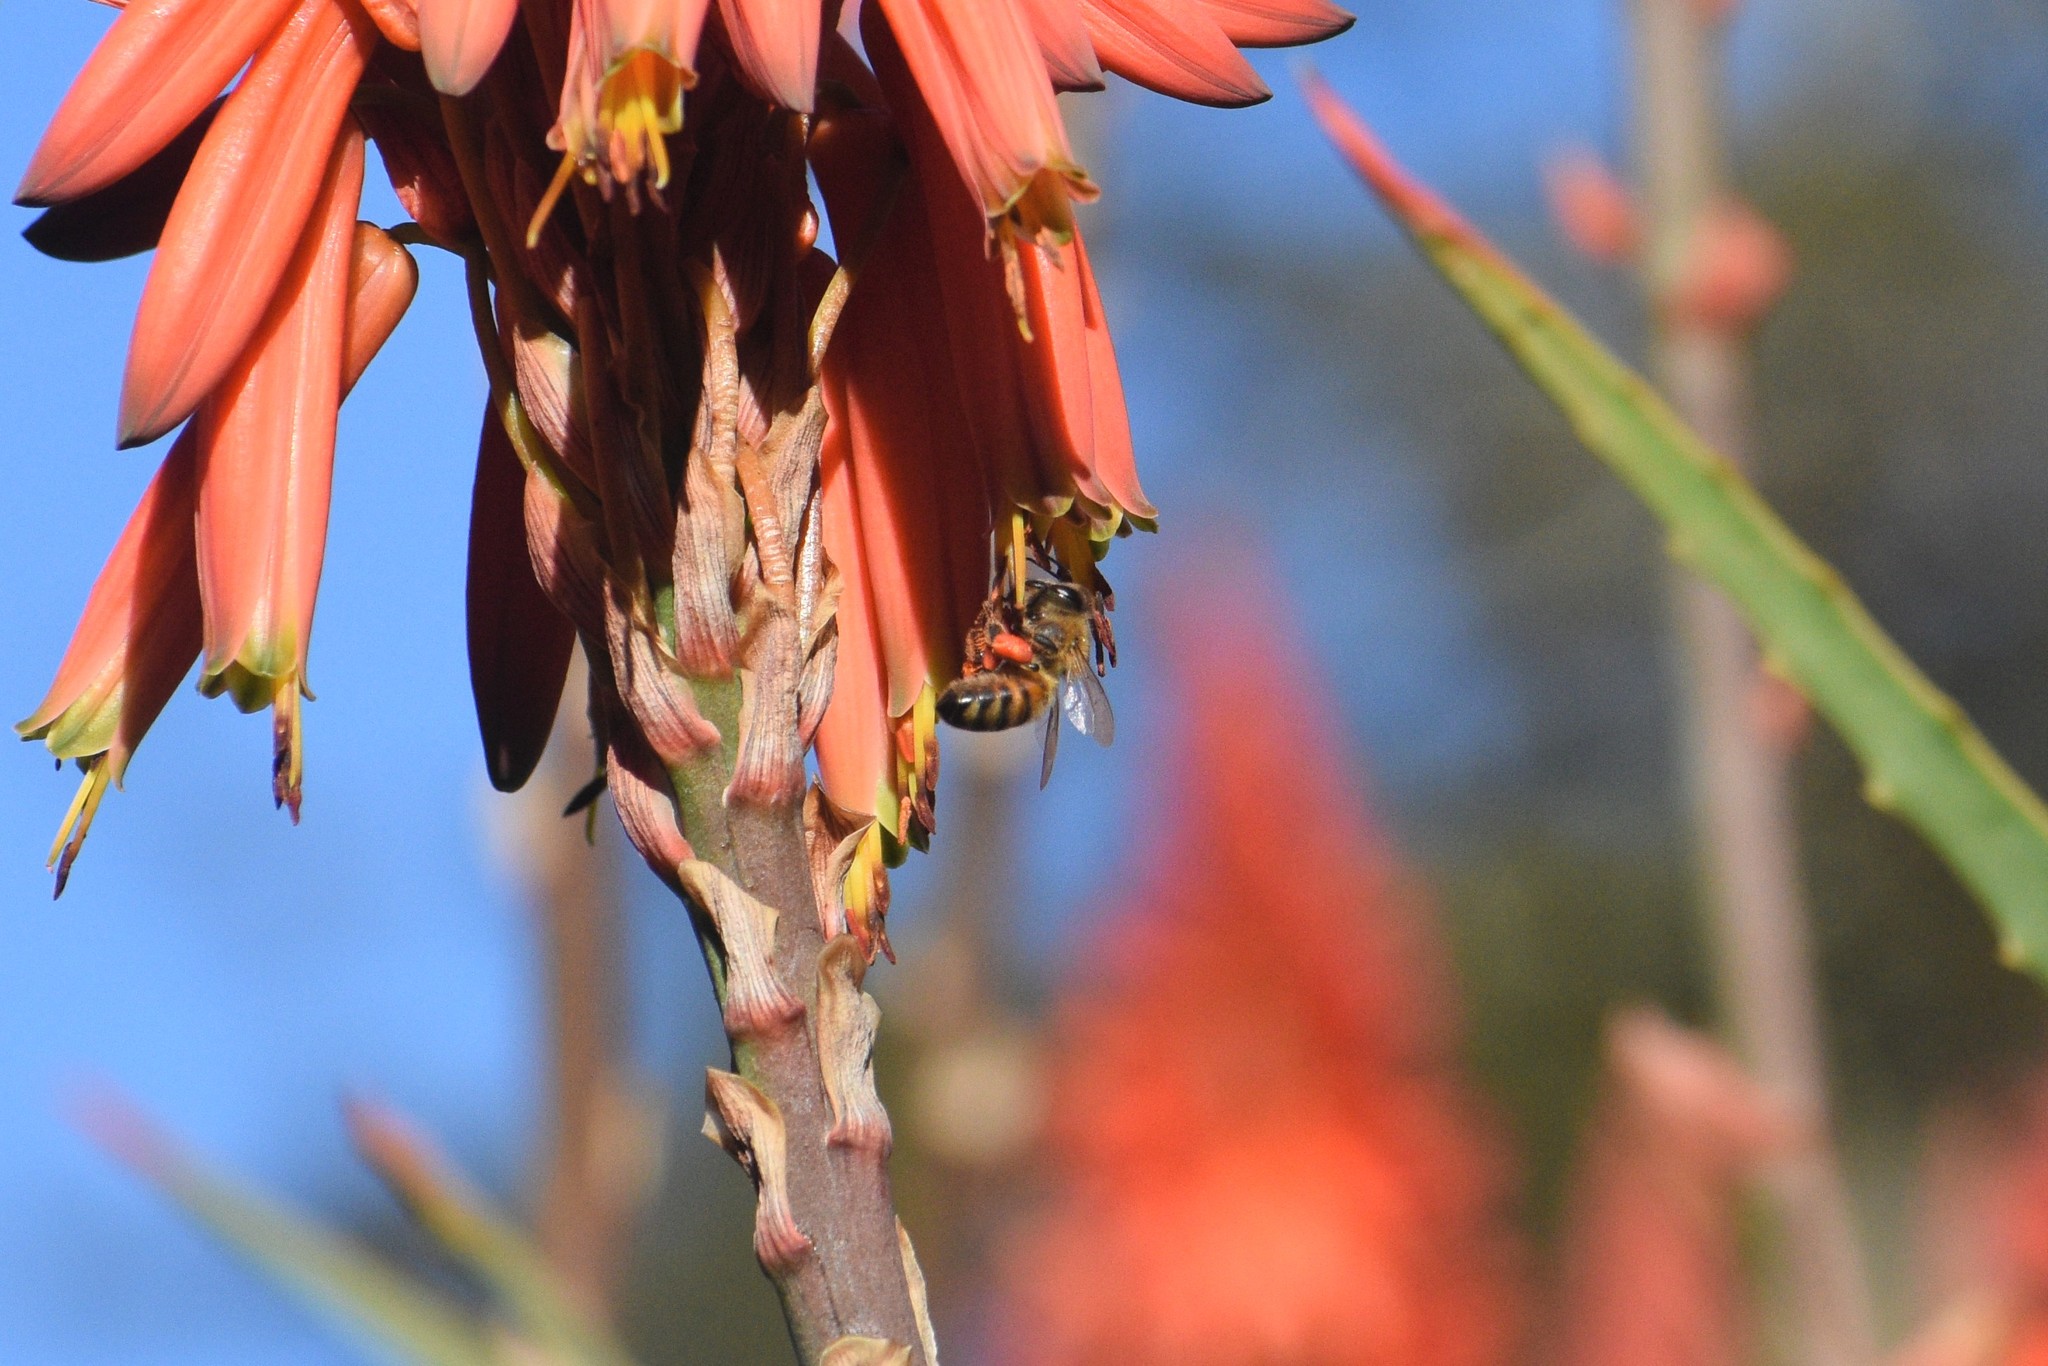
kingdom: Animalia
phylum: Arthropoda
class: Insecta
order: Hymenoptera
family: Apidae
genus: Apis
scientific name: Apis mellifera
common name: Honey bee
